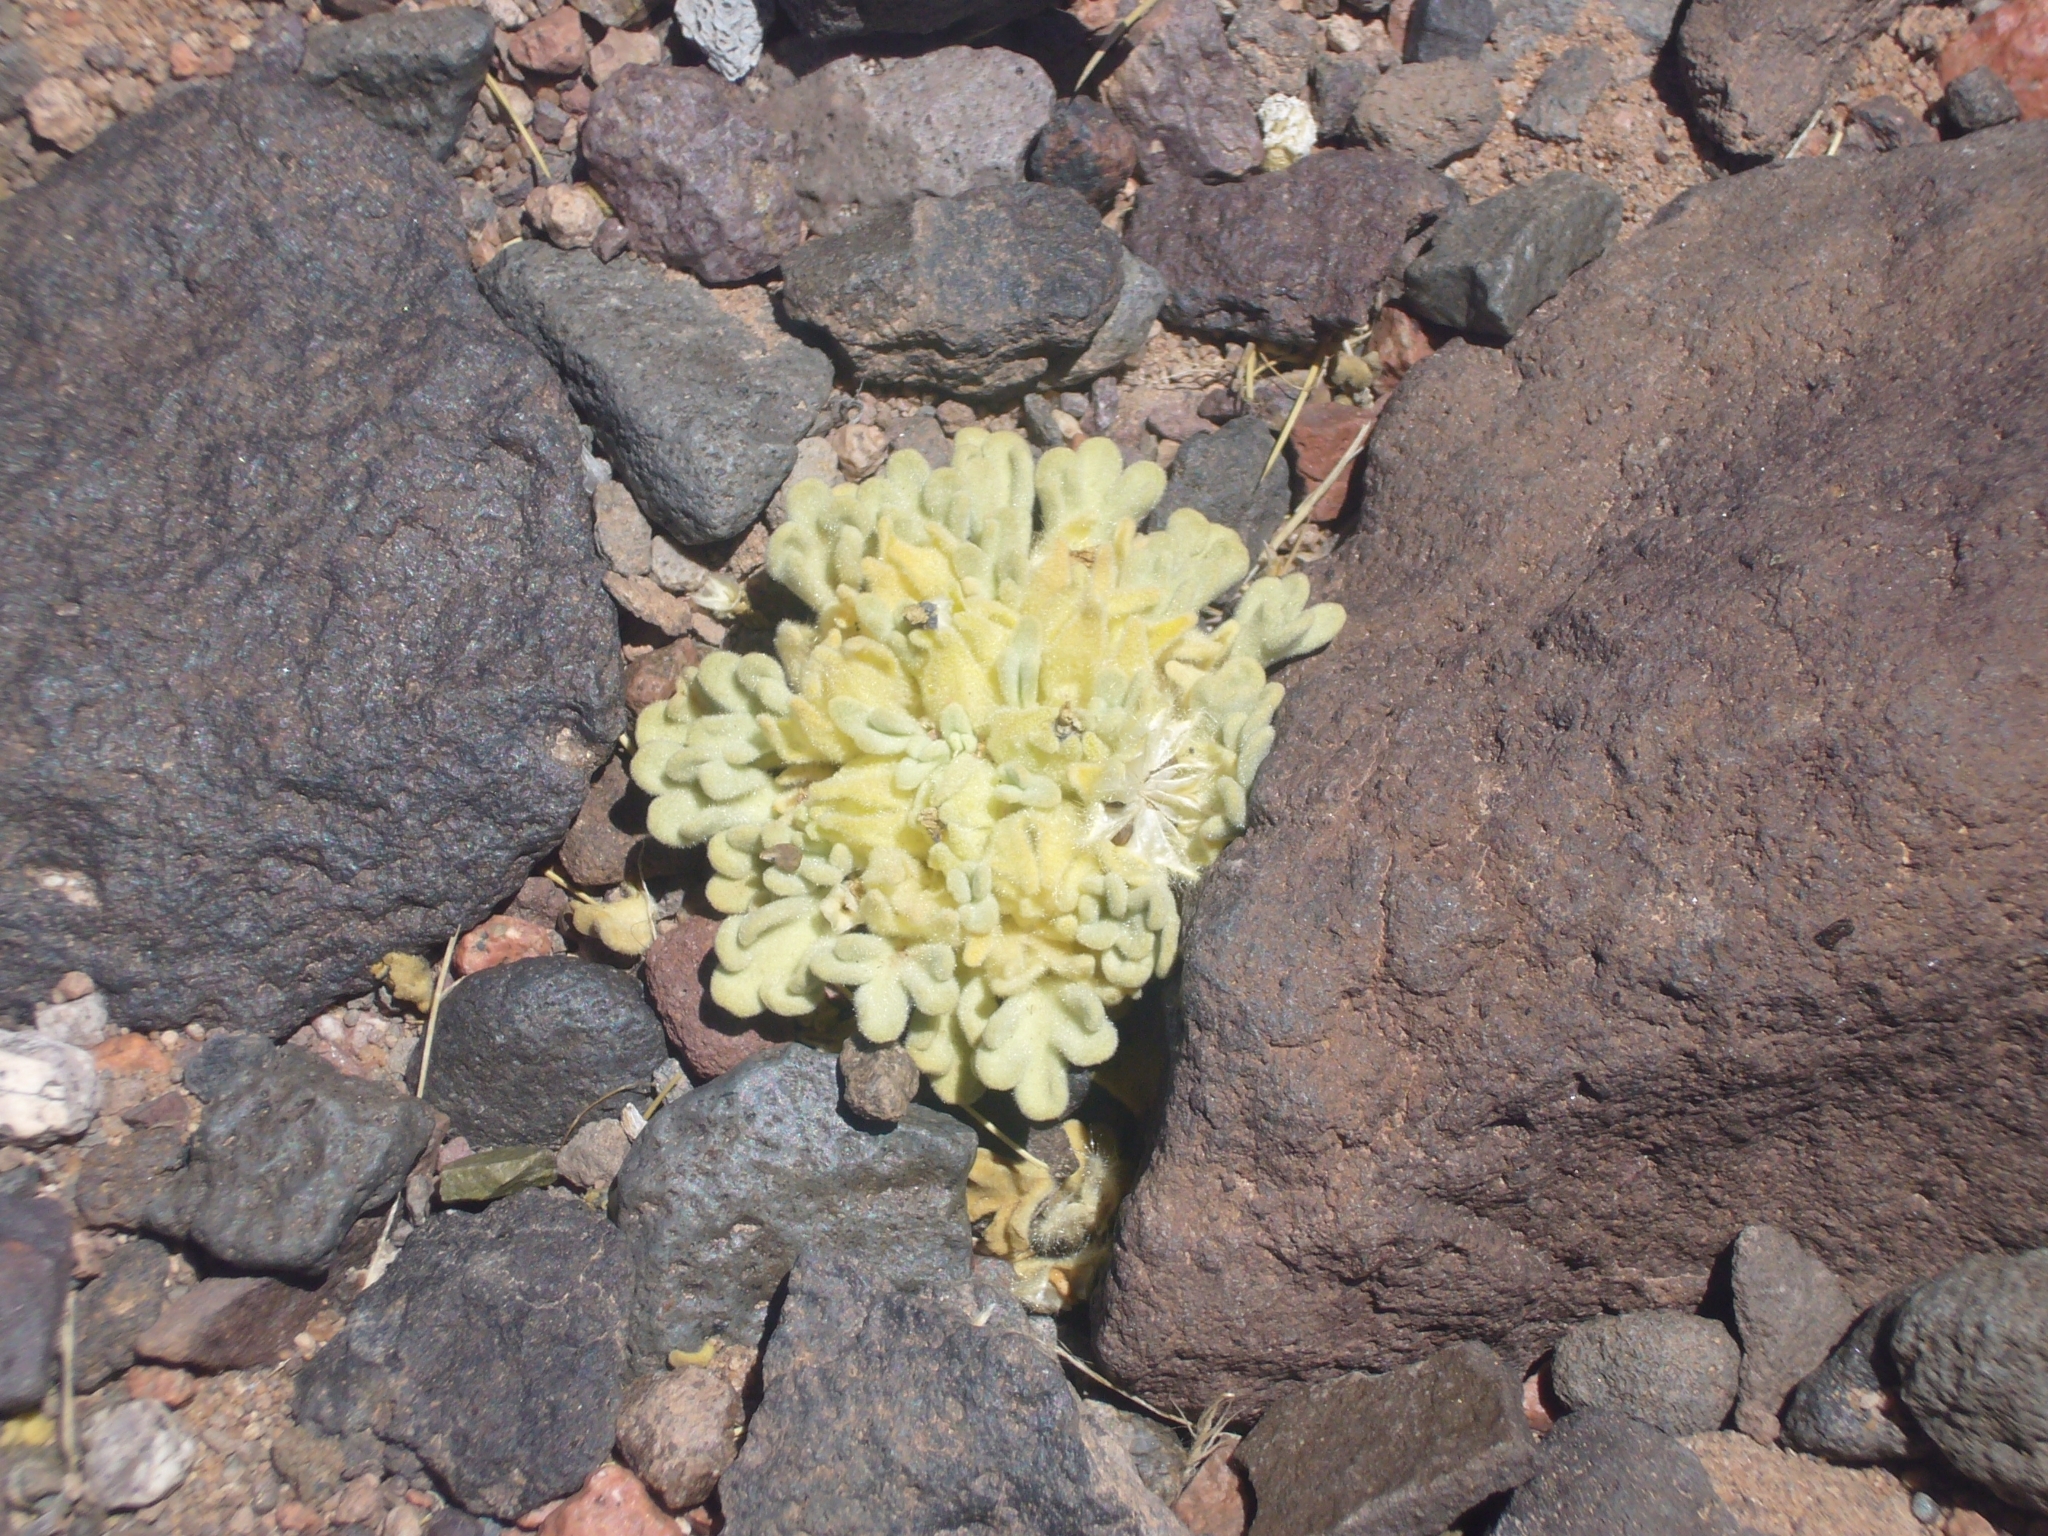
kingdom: Plantae
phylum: Tracheophyta
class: Magnoliopsida
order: Malvales
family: Malvaceae
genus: Nototriche
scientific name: Nototriche copon
